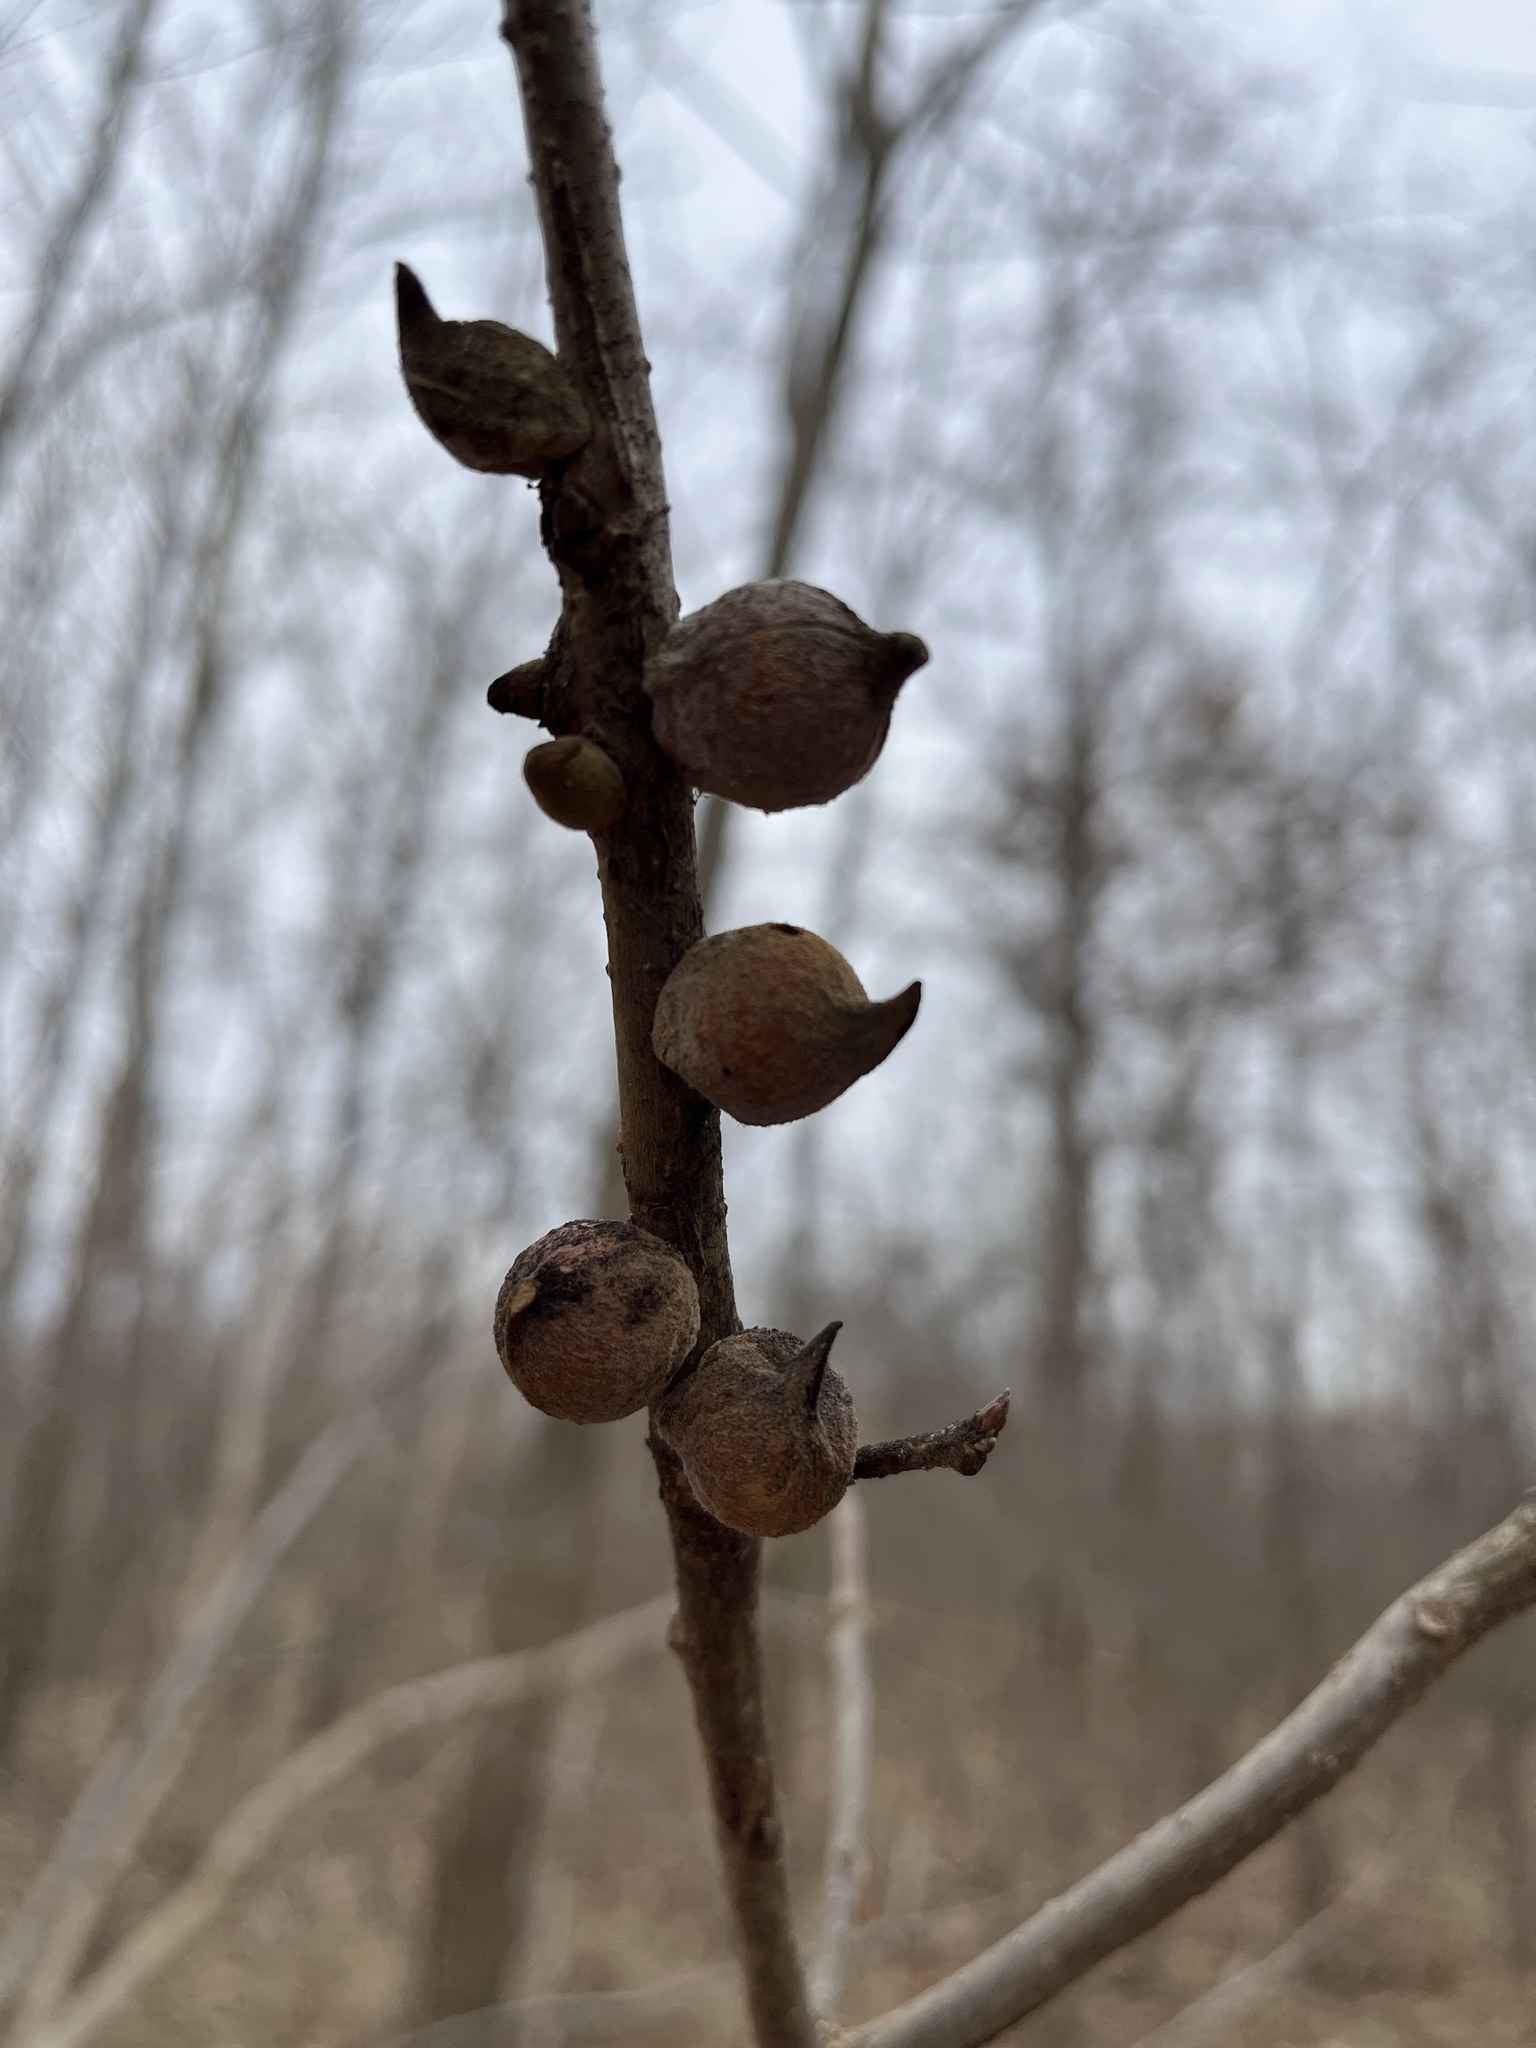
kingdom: Animalia
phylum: Arthropoda
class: Insecta
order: Hymenoptera
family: Cynipidae
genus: Disholcaspis
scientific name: Disholcaspis
